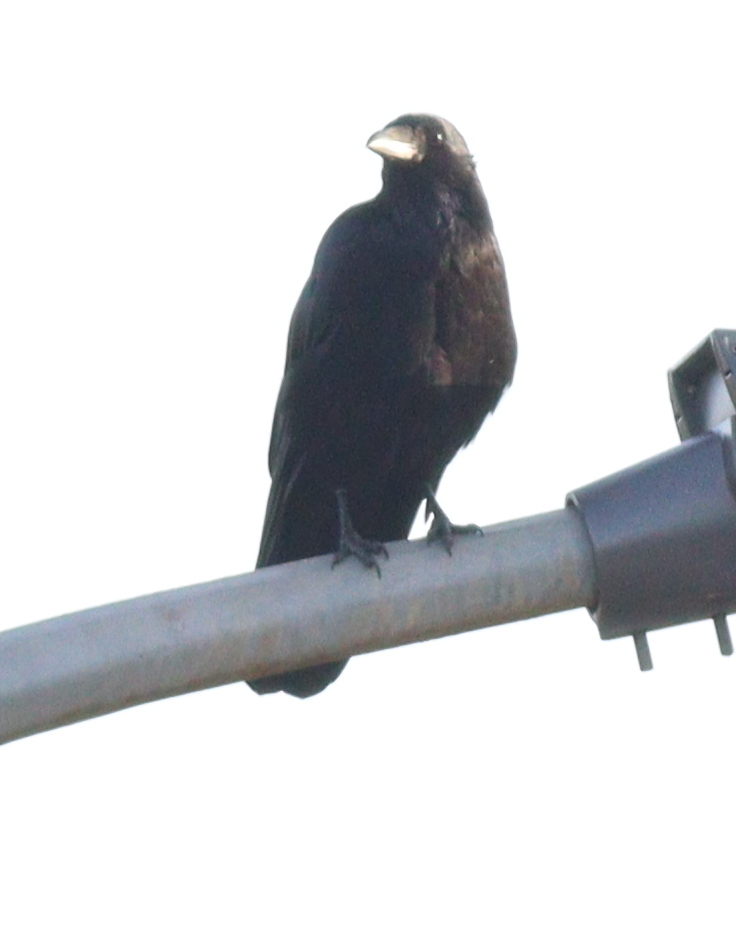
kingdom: Animalia
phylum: Chordata
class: Aves
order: Passeriformes
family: Corvidae
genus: Corvus
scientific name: Corvus corone
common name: Carrion crow
